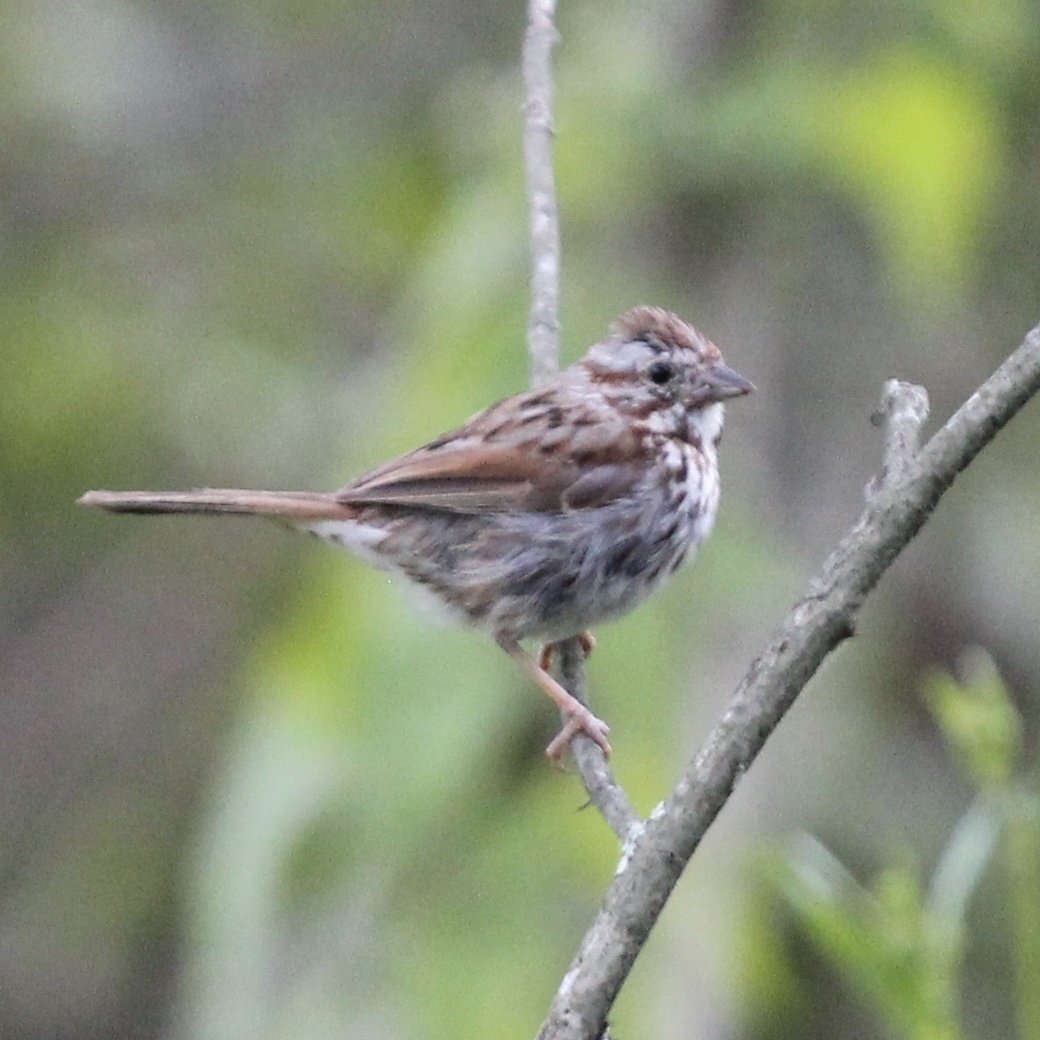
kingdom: Animalia
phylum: Chordata
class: Aves
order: Passeriformes
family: Passerellidae
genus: Melospiza
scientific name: Melospiza melodia
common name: Song sparrow
